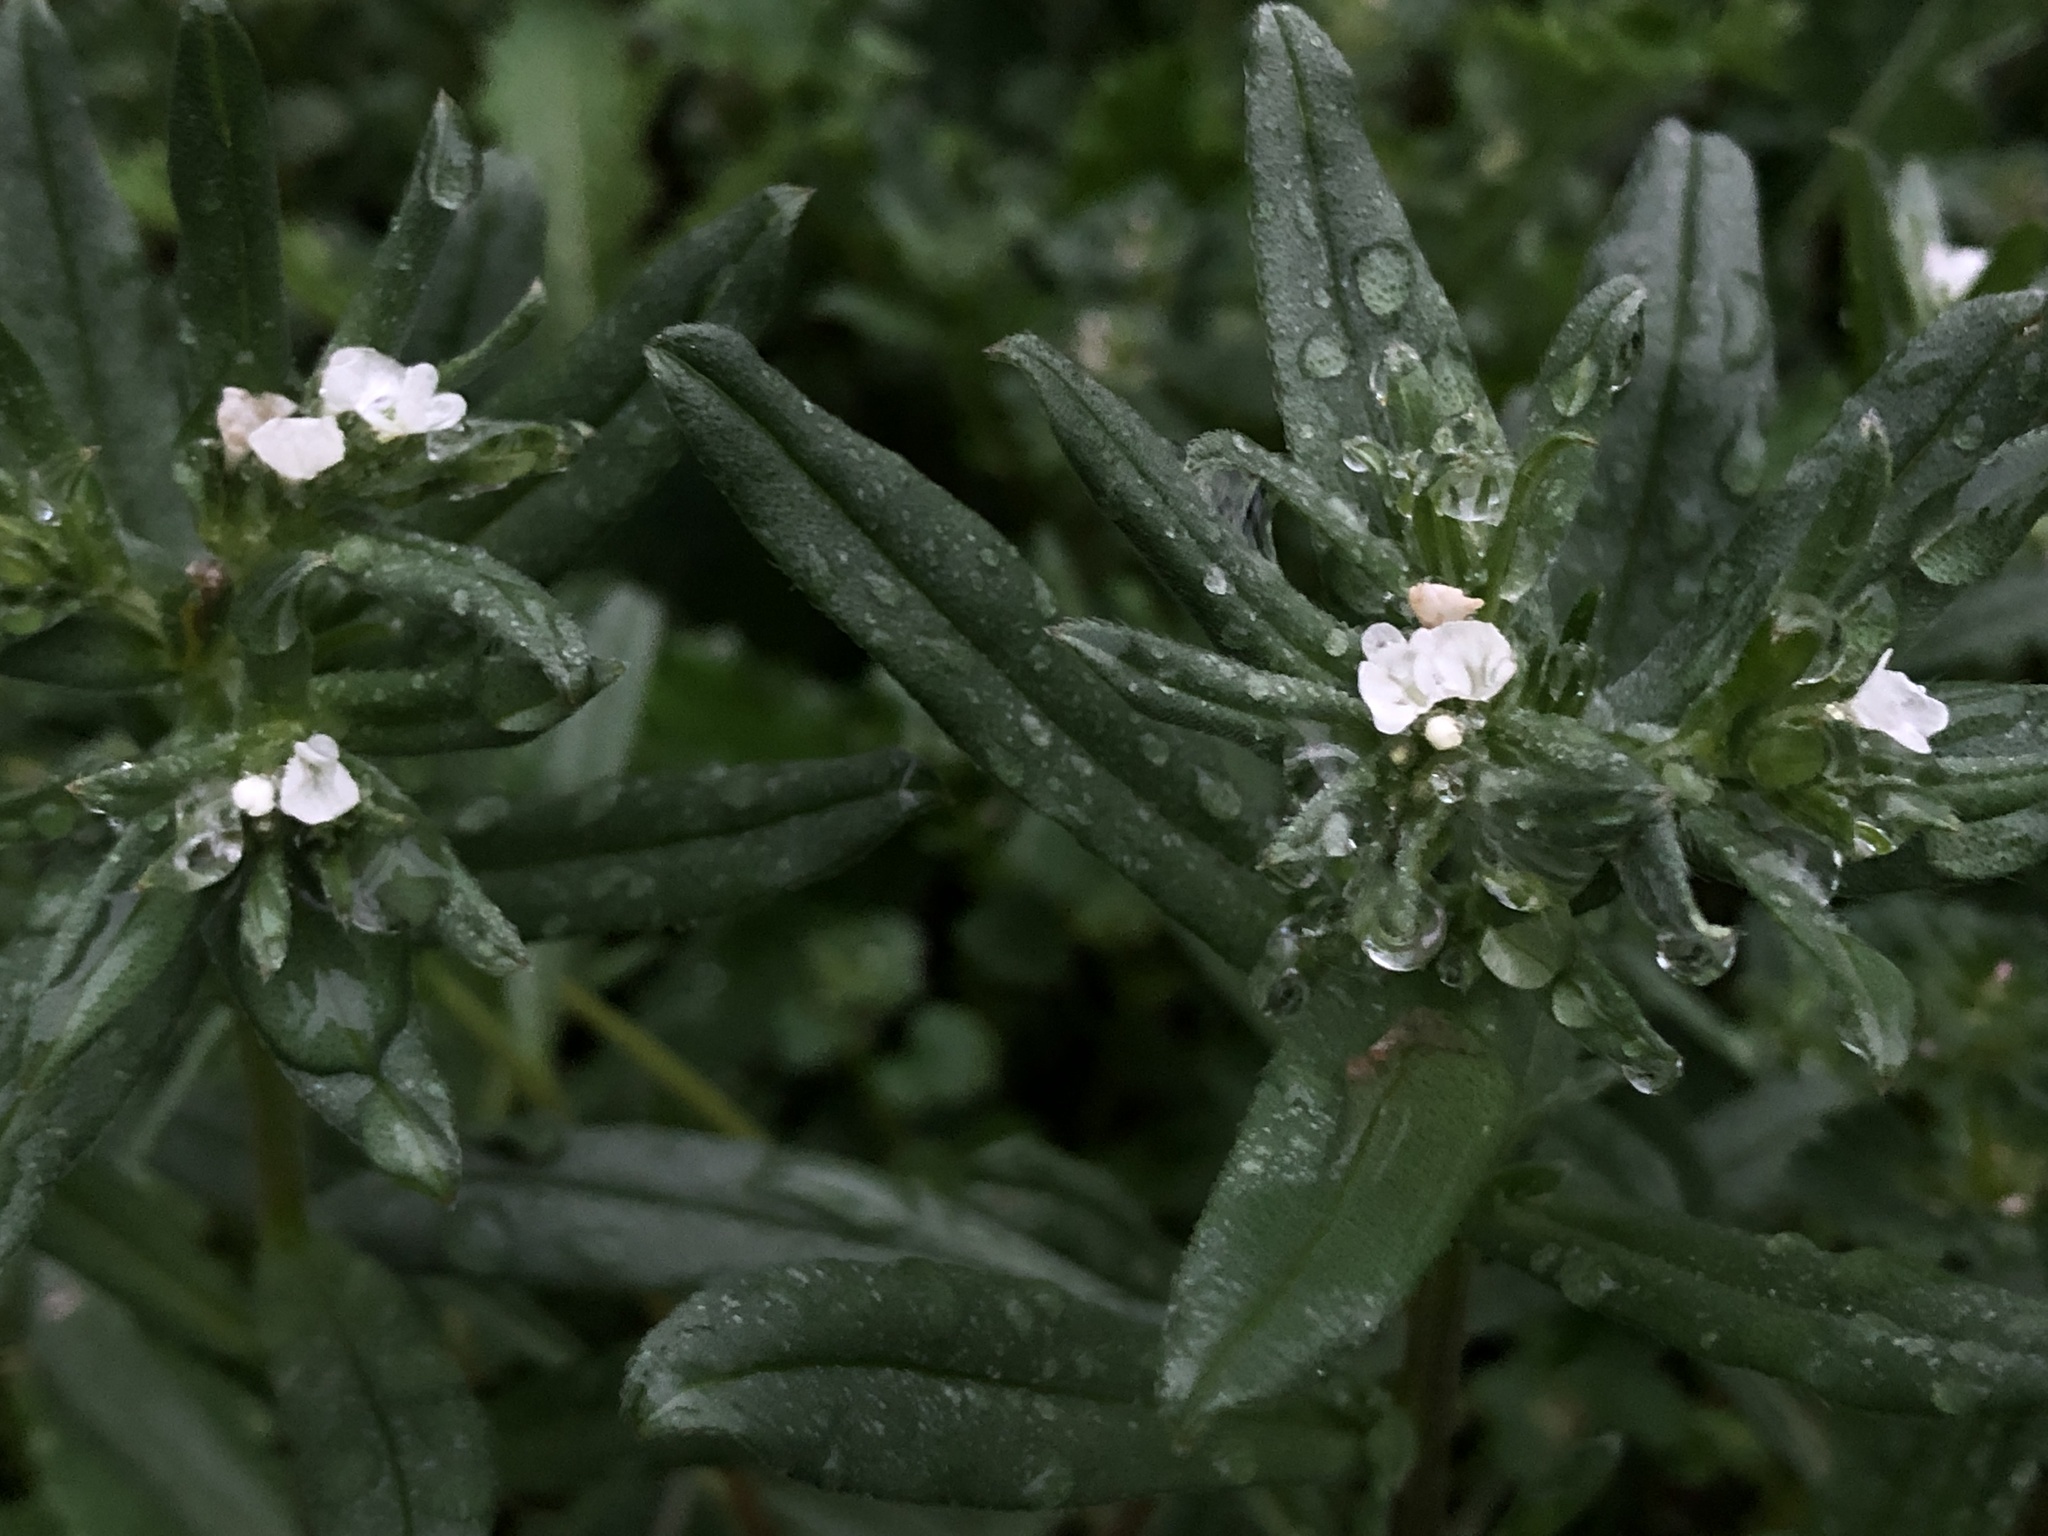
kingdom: Plantae
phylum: Tracheophyta
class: Magnoliopsida
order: Boraginales
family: Boraginaceae
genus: Buglossoides
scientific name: Buglossoides arvensis
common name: Corn gromwell
